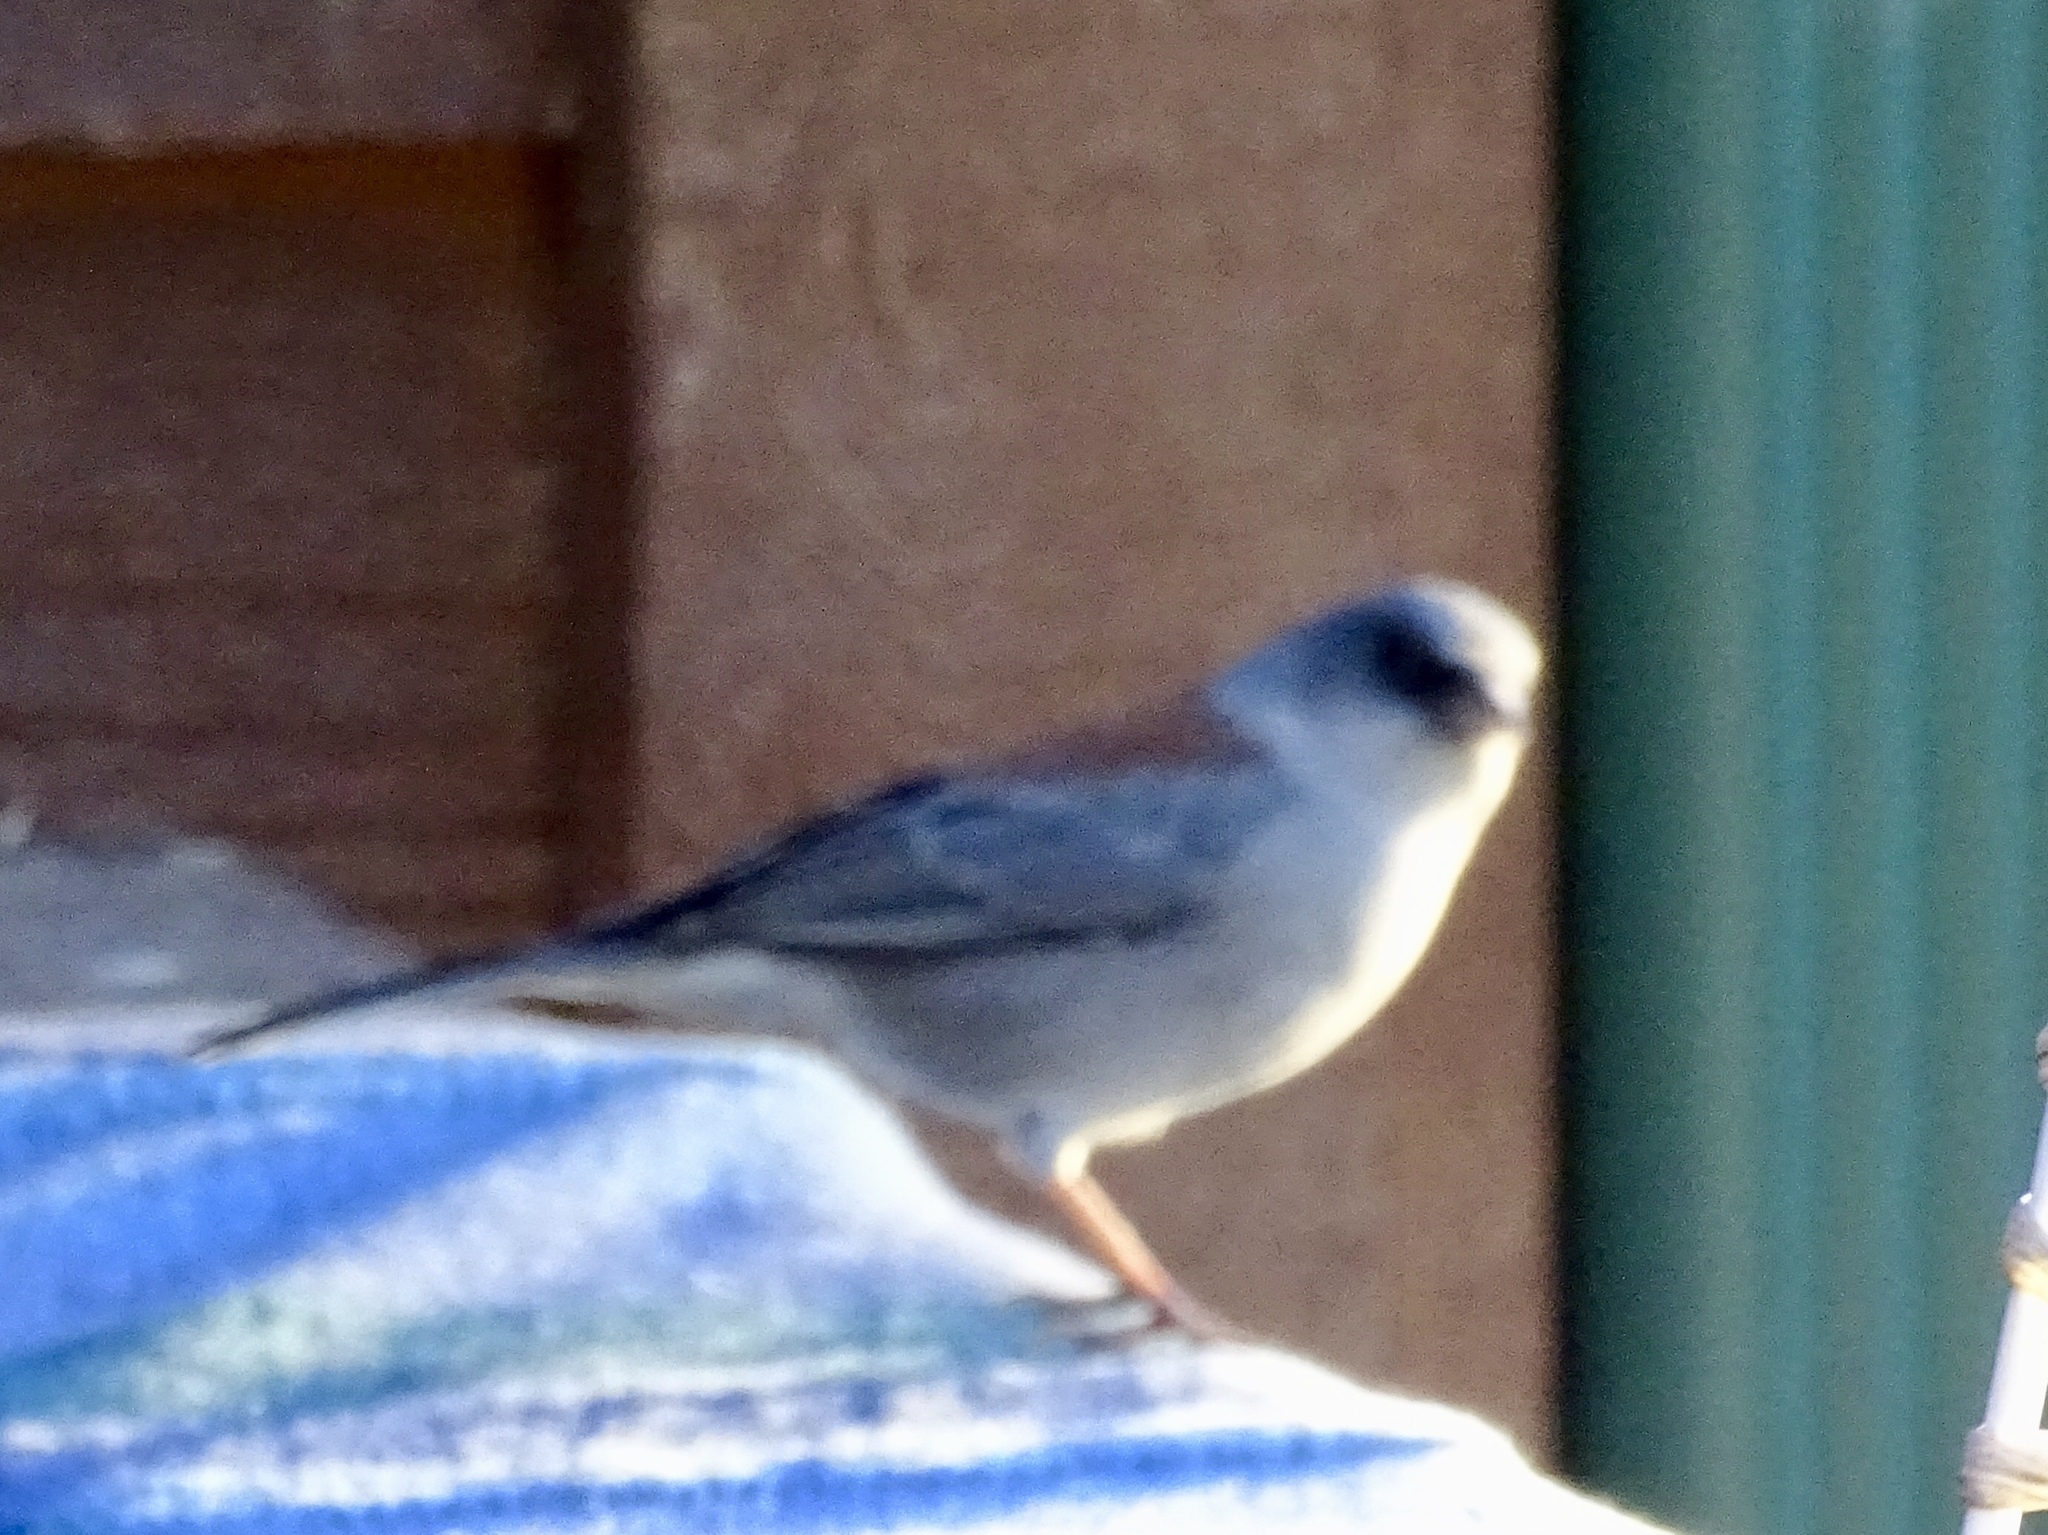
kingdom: Animalia
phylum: Chordata
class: Aves
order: Passeriformes
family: Passerellidae
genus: Junco
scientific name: Junco hyemalis
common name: Dark-eyed junco
